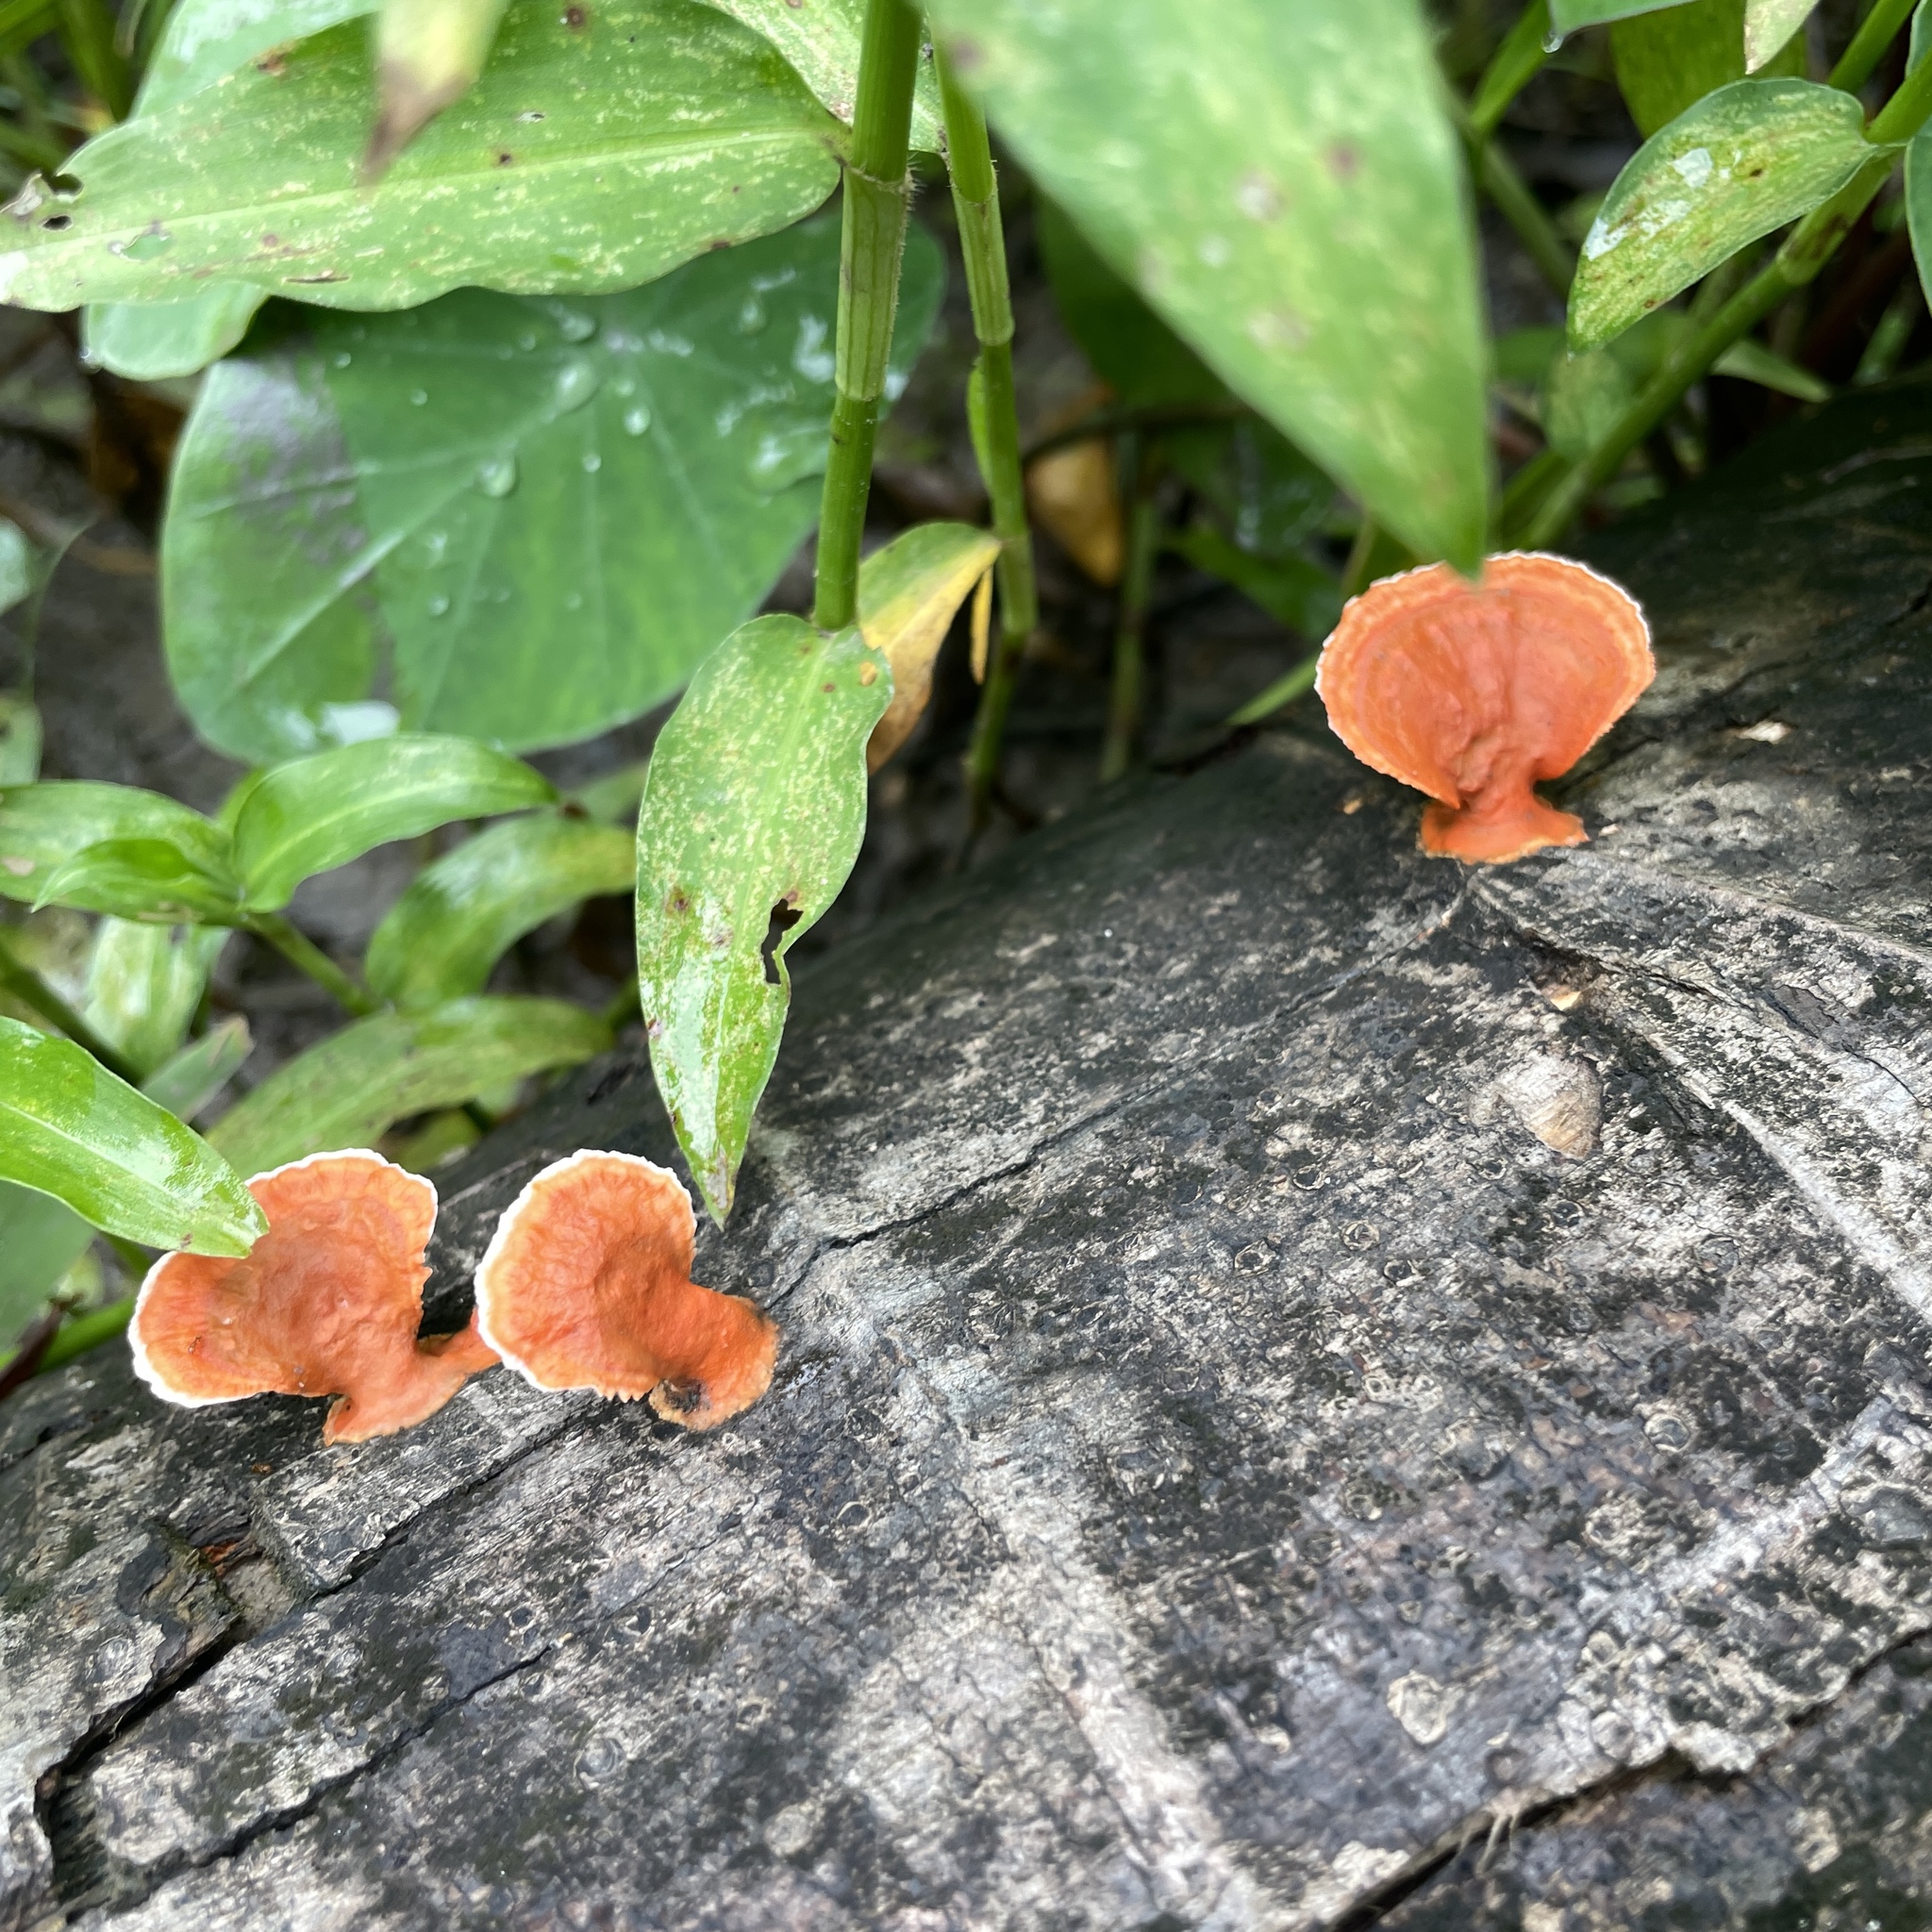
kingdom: Fungi
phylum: Basidiomycota
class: Agaricomycetes
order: Polyporales
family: Polyporaceae
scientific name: Polyporaceae
